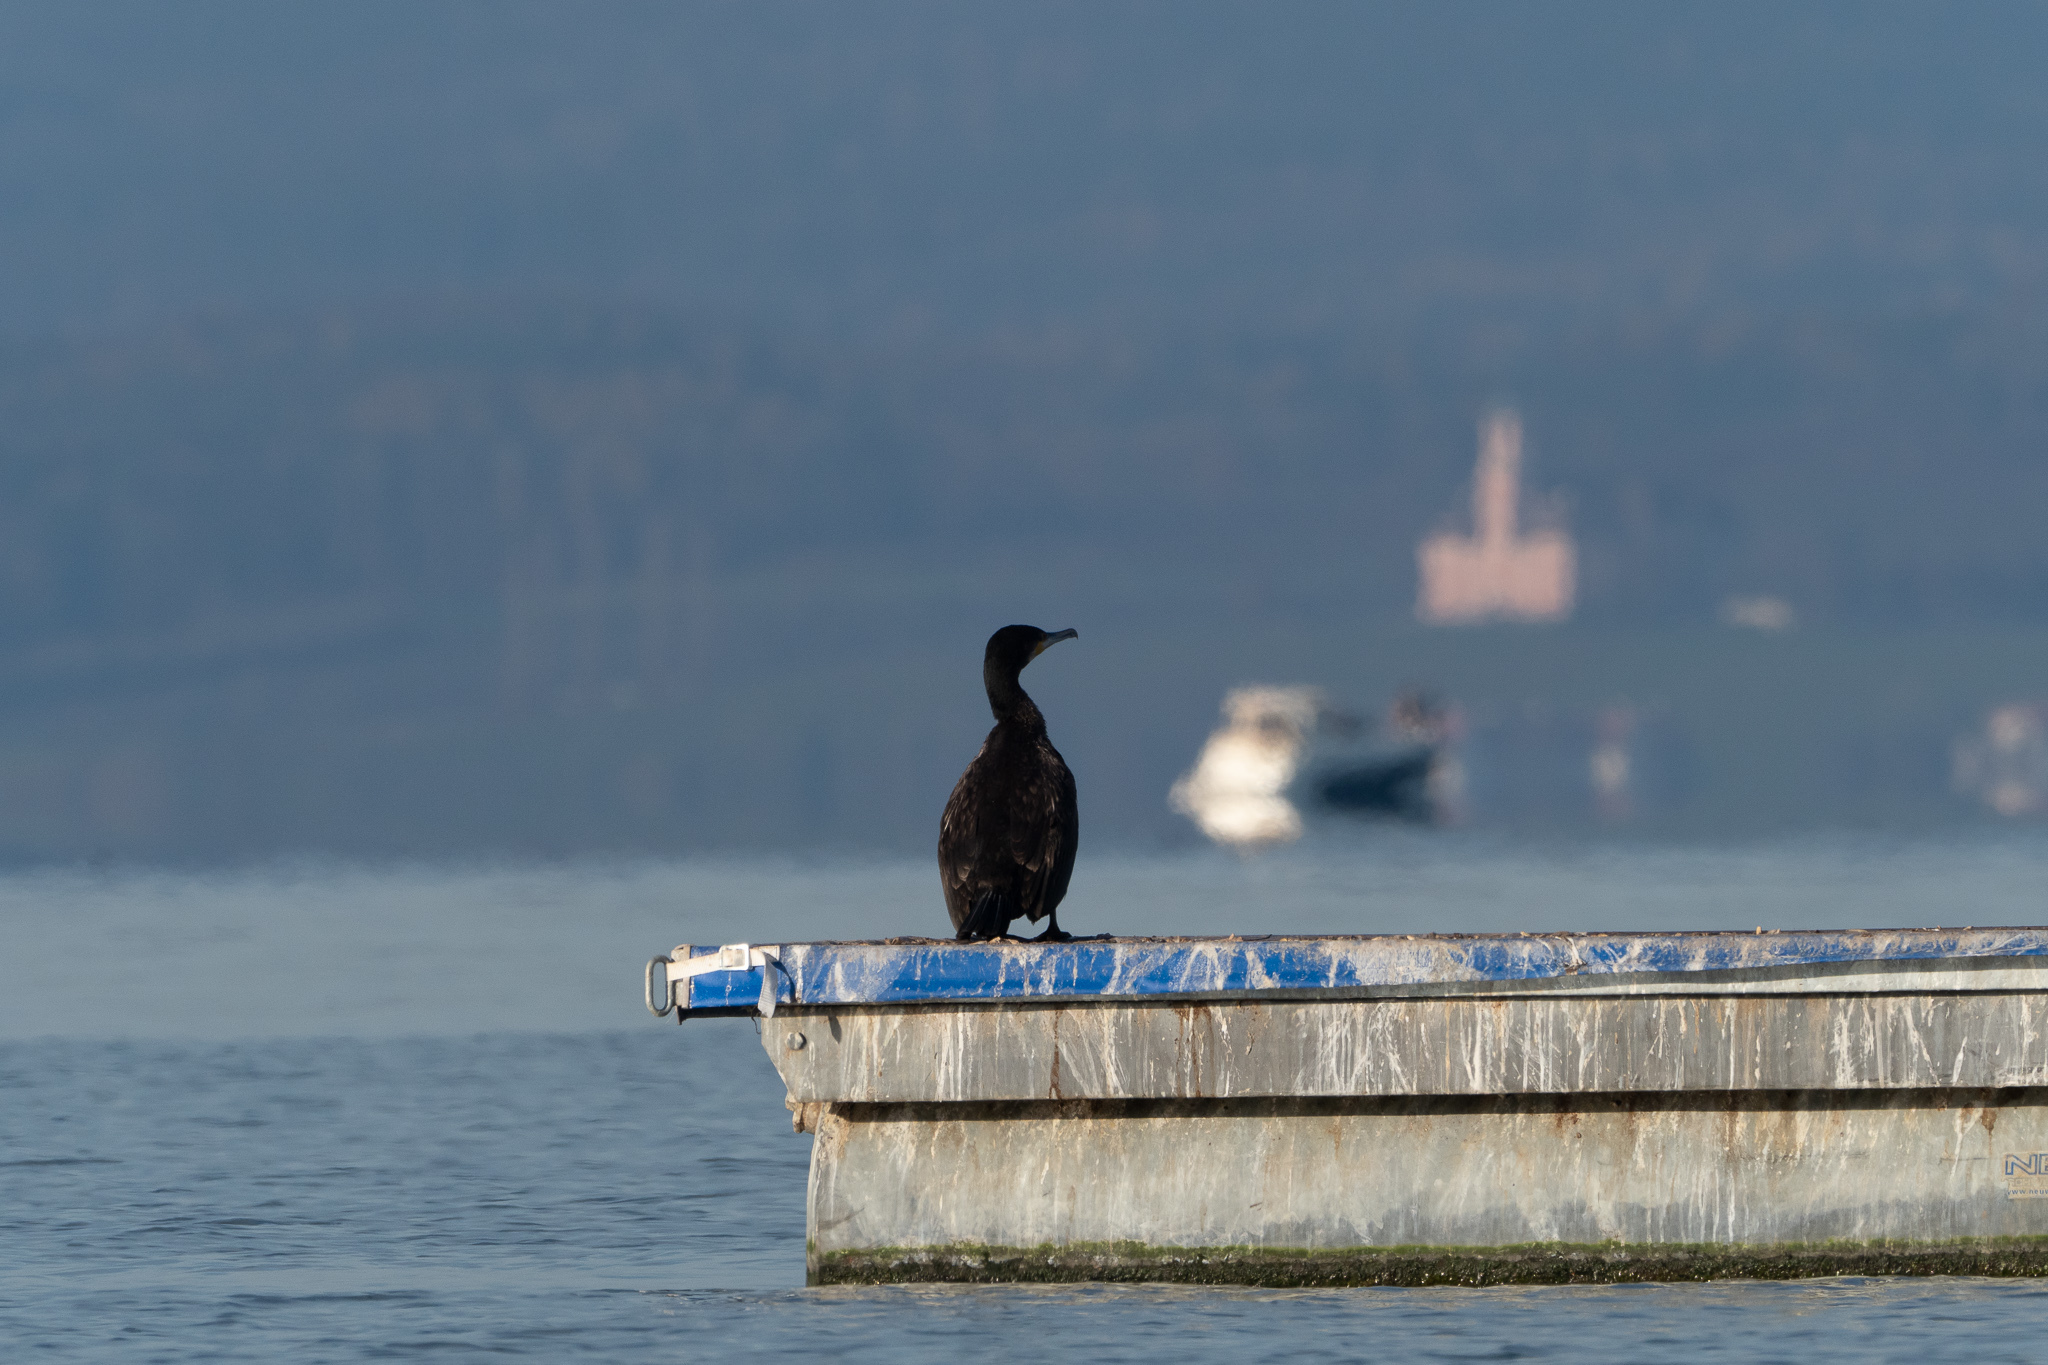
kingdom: Animalia
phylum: Chordata
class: Aves
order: Suliformes
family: Phalacrocoracidae
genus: Phalacrocorax
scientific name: Phalacrocorax carbo
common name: Great cormorant
